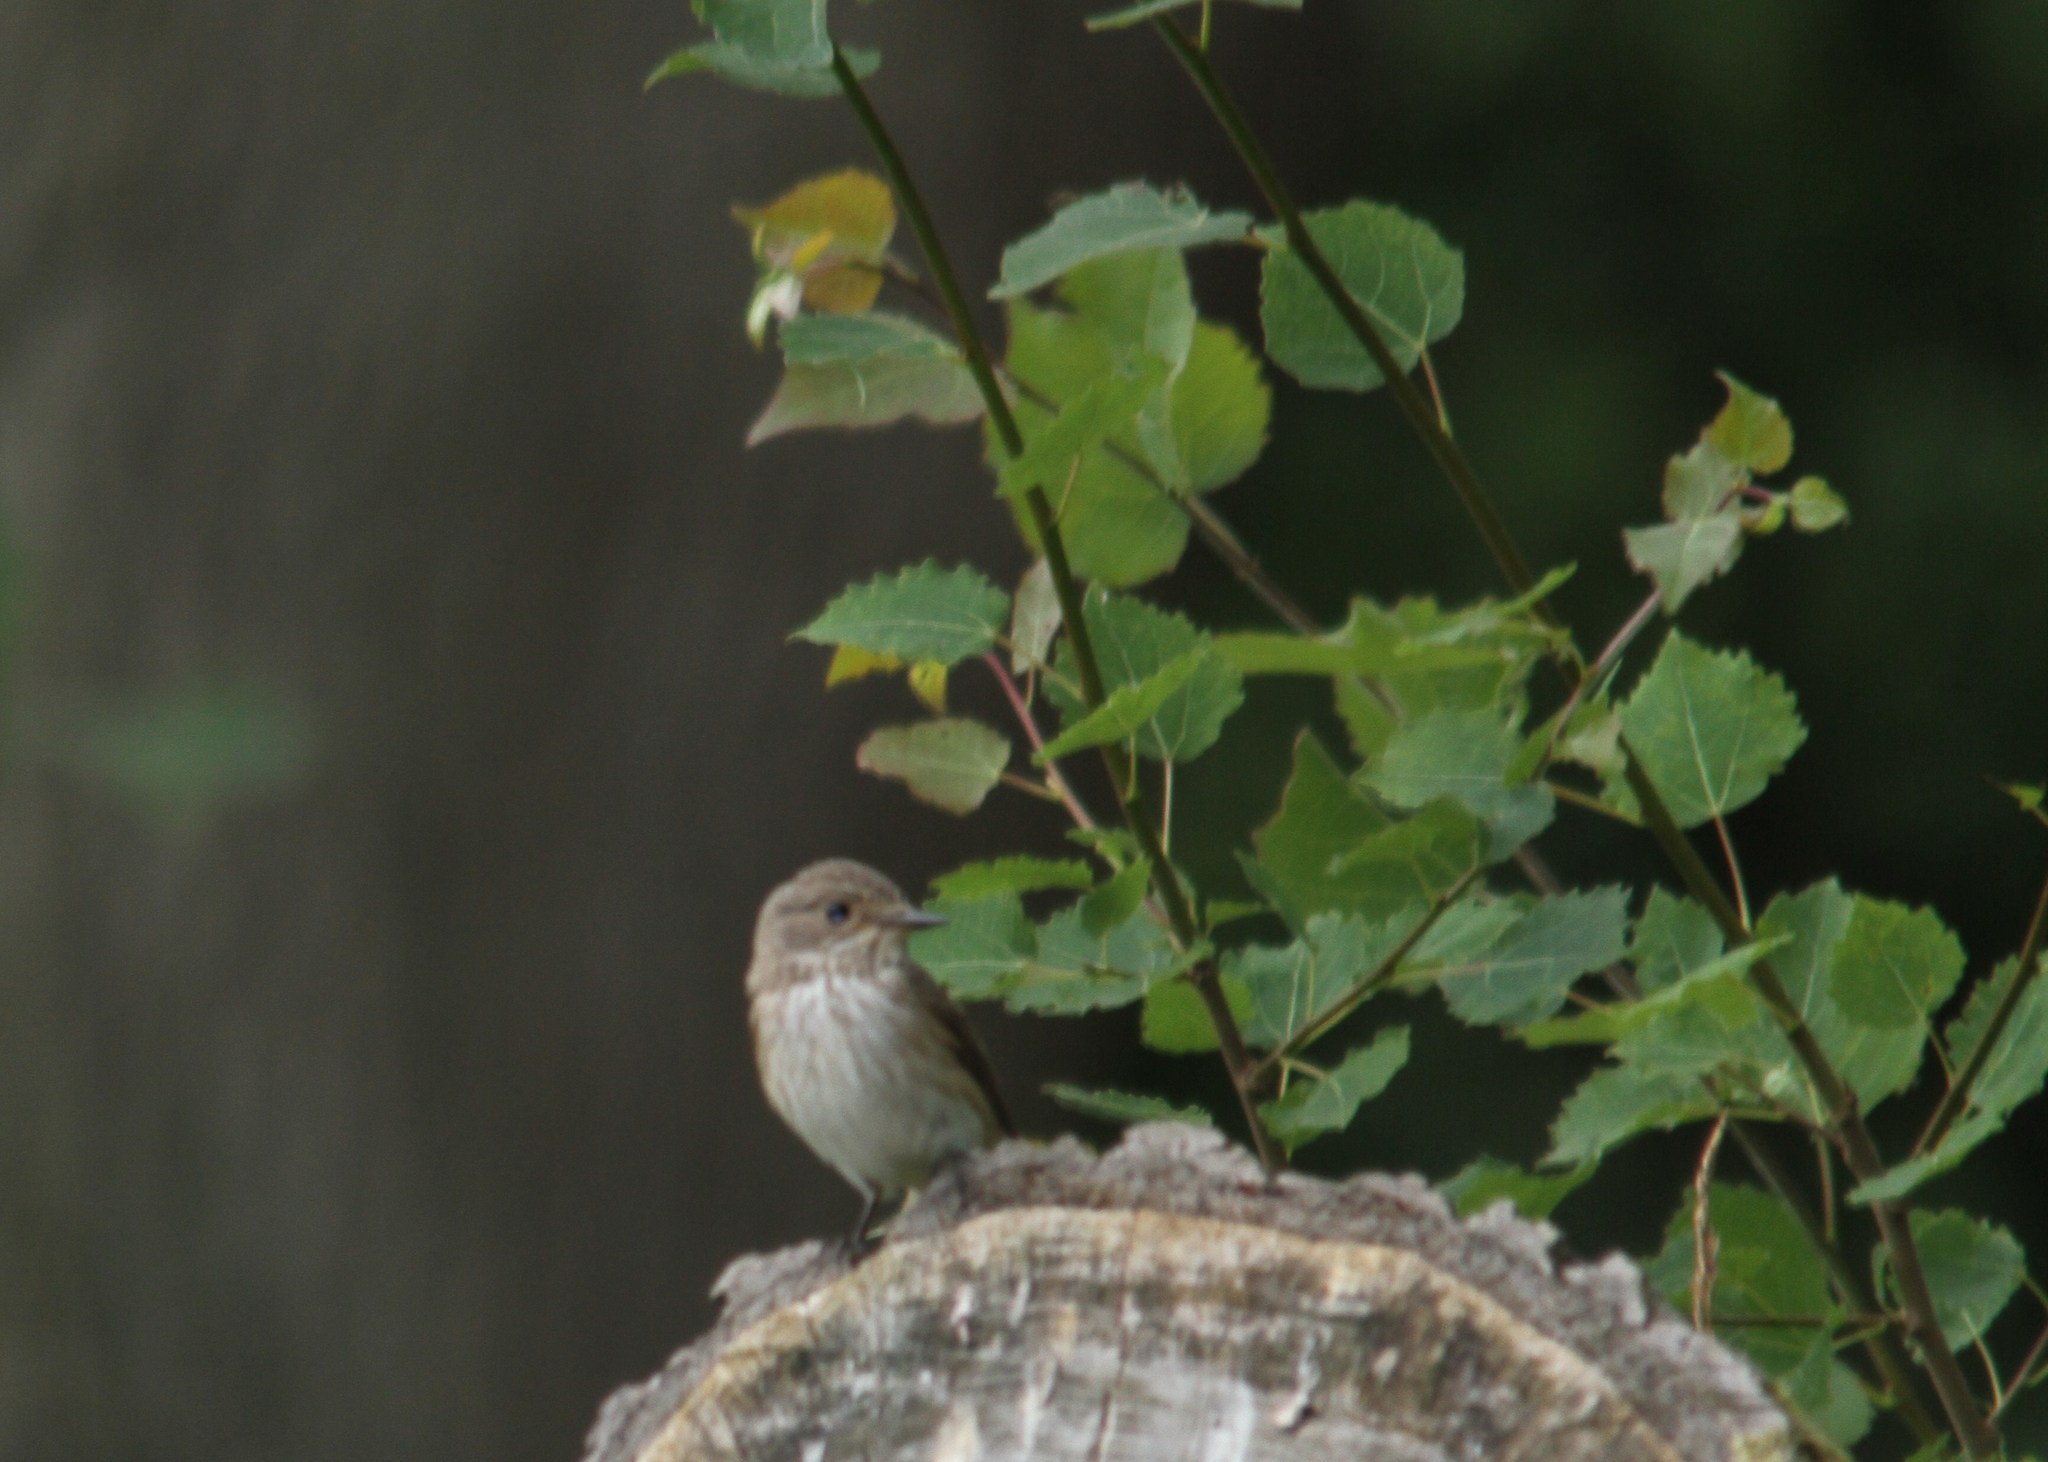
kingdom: Animalia
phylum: Chordata
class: Aves
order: Passeriformes
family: Muscicapidae
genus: Muscicapa
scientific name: Muscicapa striata
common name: Spotted flycatcher
